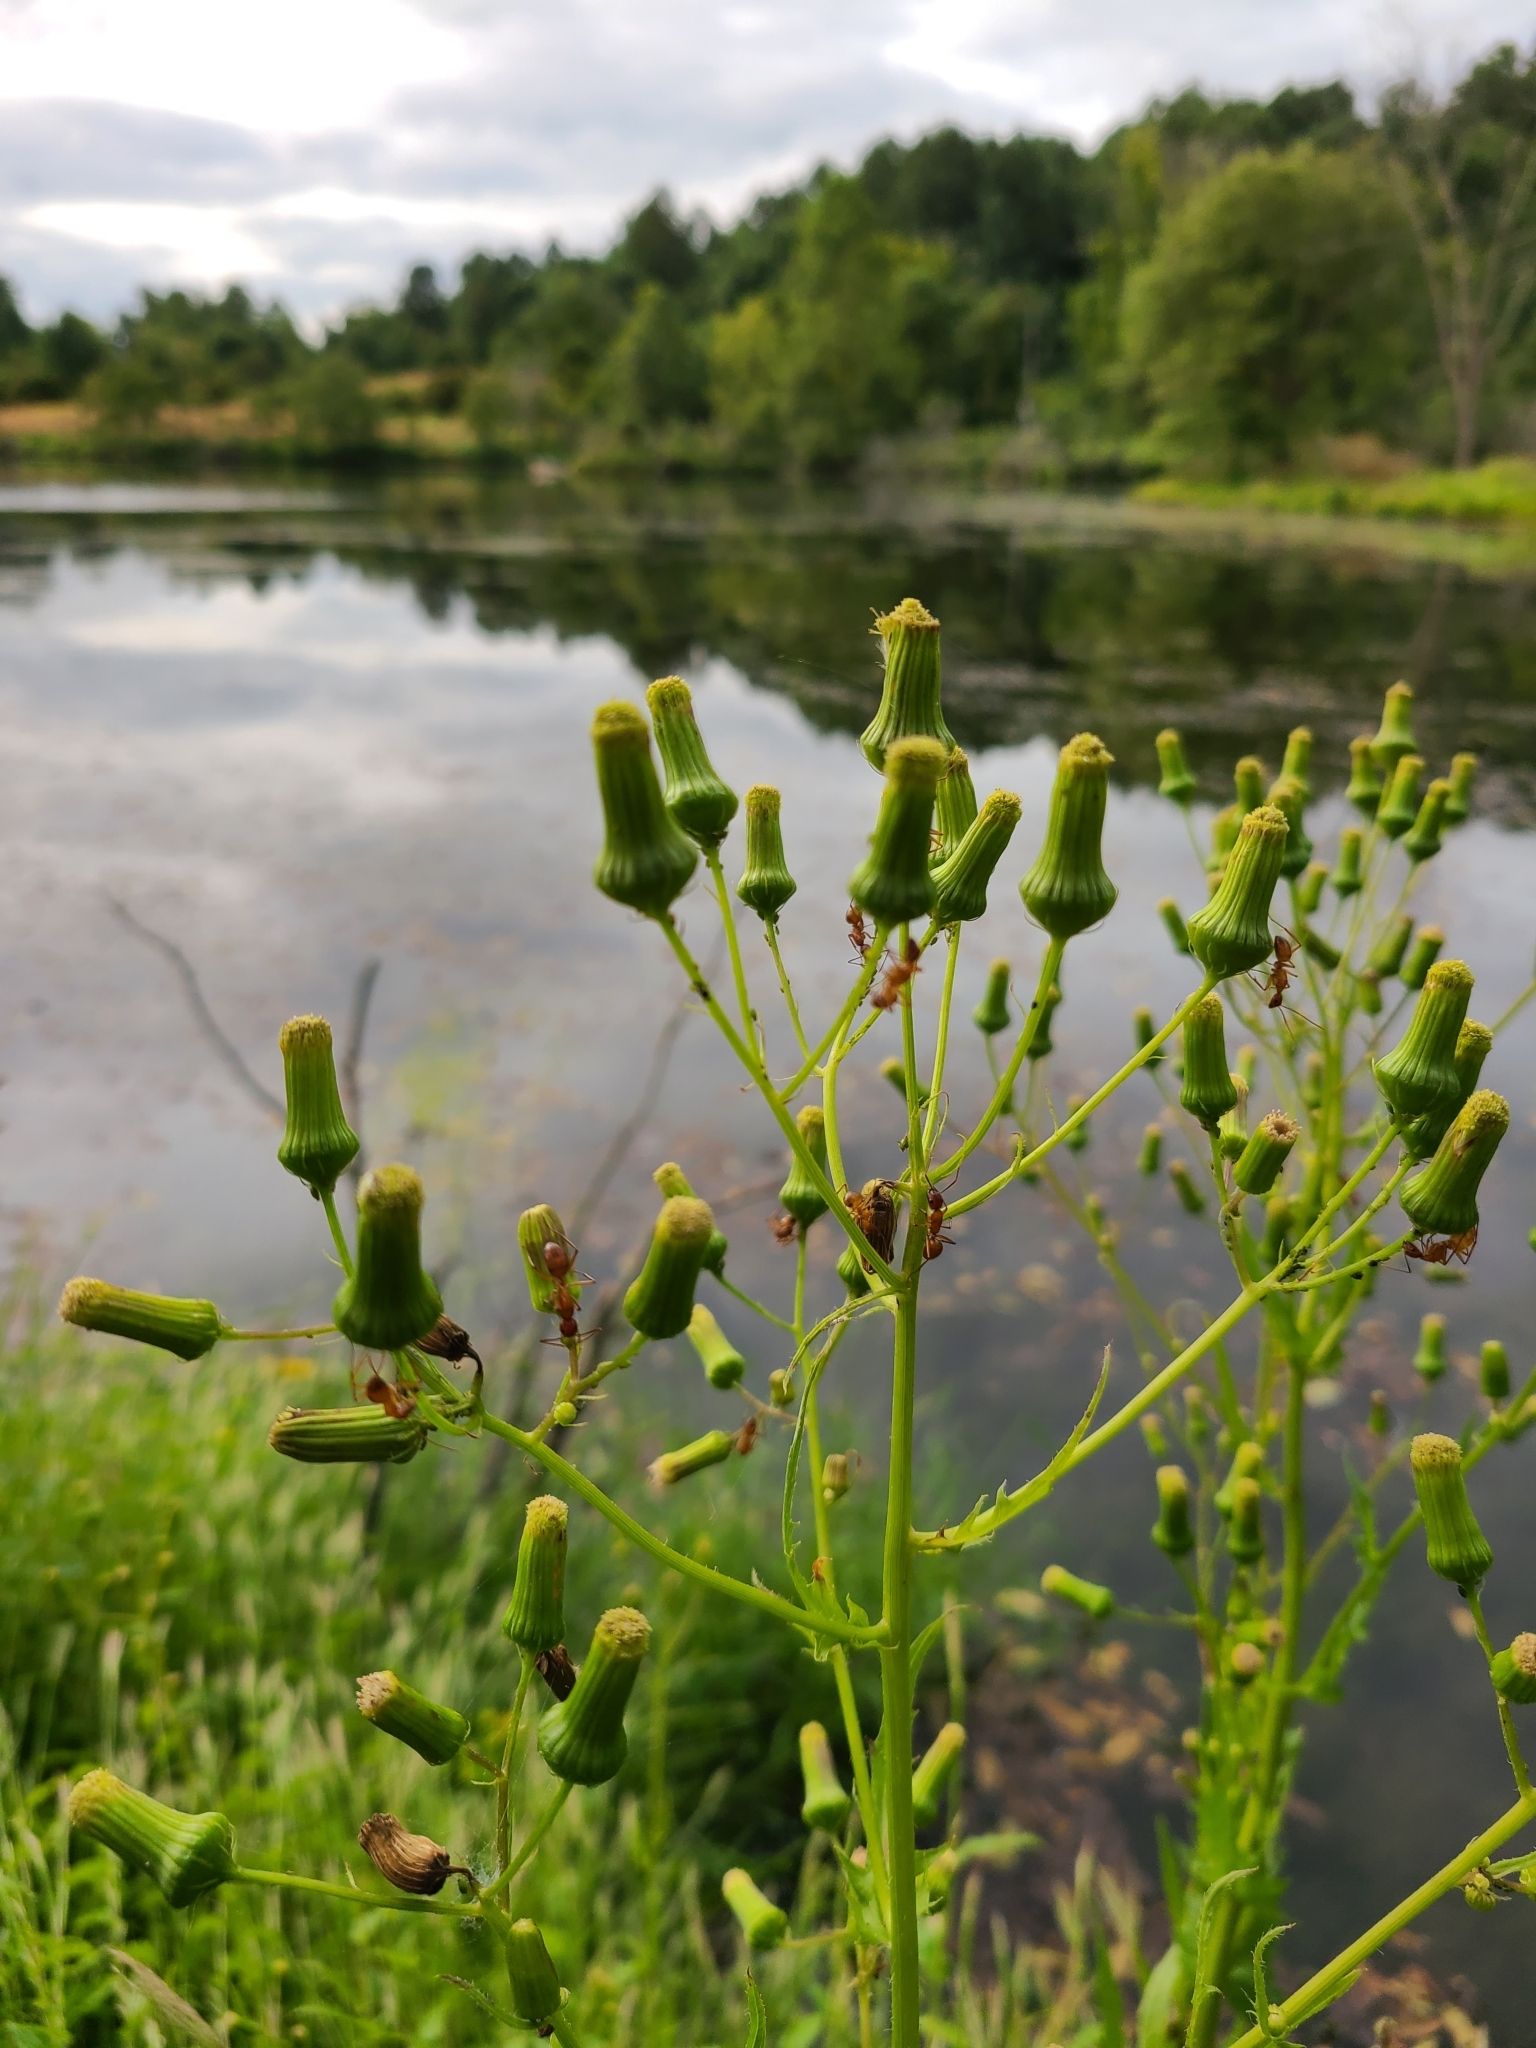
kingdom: Plantae
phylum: Tracheophyta
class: Magnoliopsida
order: Asterales
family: Asteraceae
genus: Erechtites
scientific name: Erechtites hieraciifolius
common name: American burnweed
